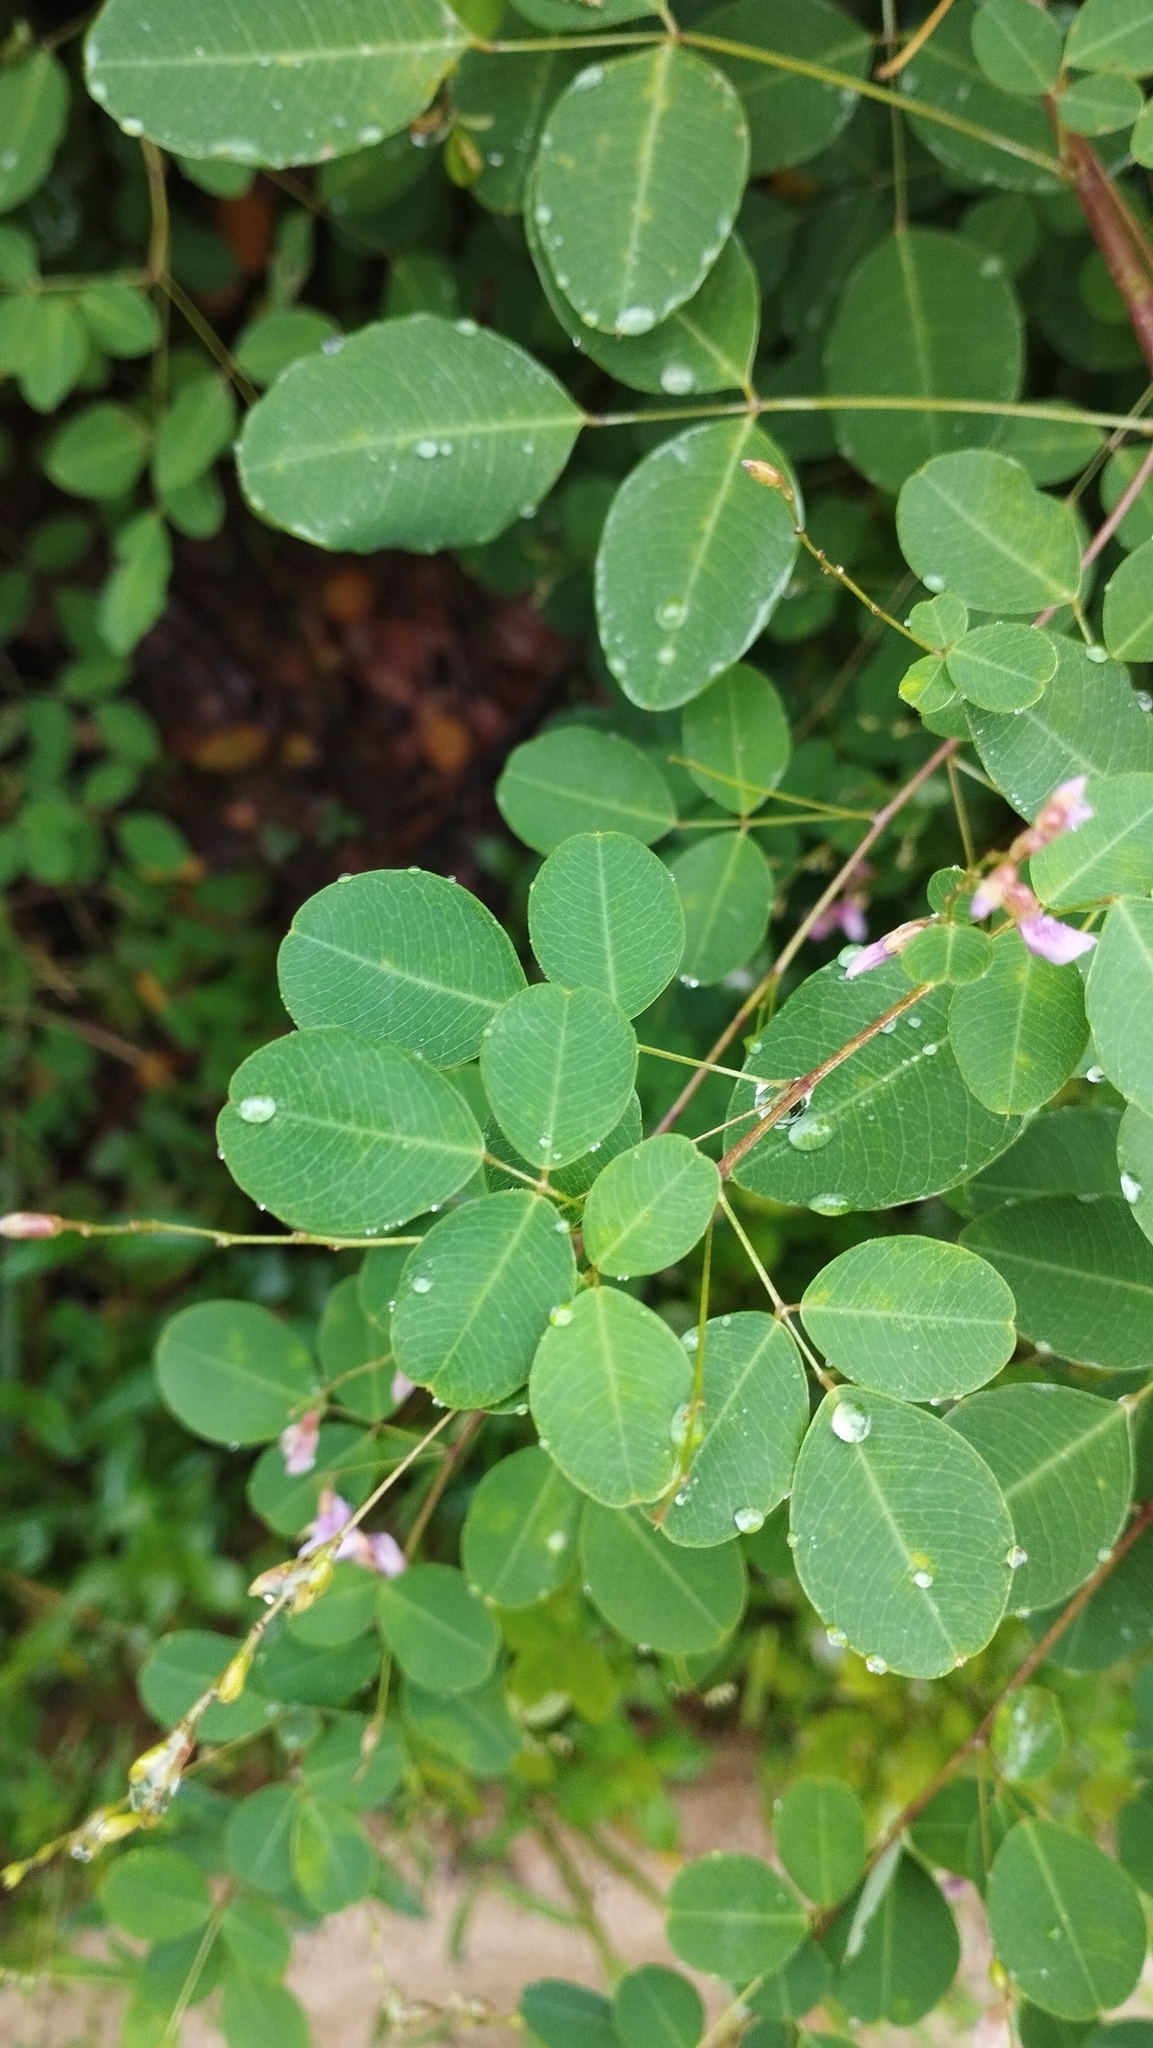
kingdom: Plantae
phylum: Tracheophyta
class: Magnoliopsida
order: Fabales
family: Fabaceae
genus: Lespedeza
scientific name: Lespedeza bicolor
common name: Shrub lespedeza
